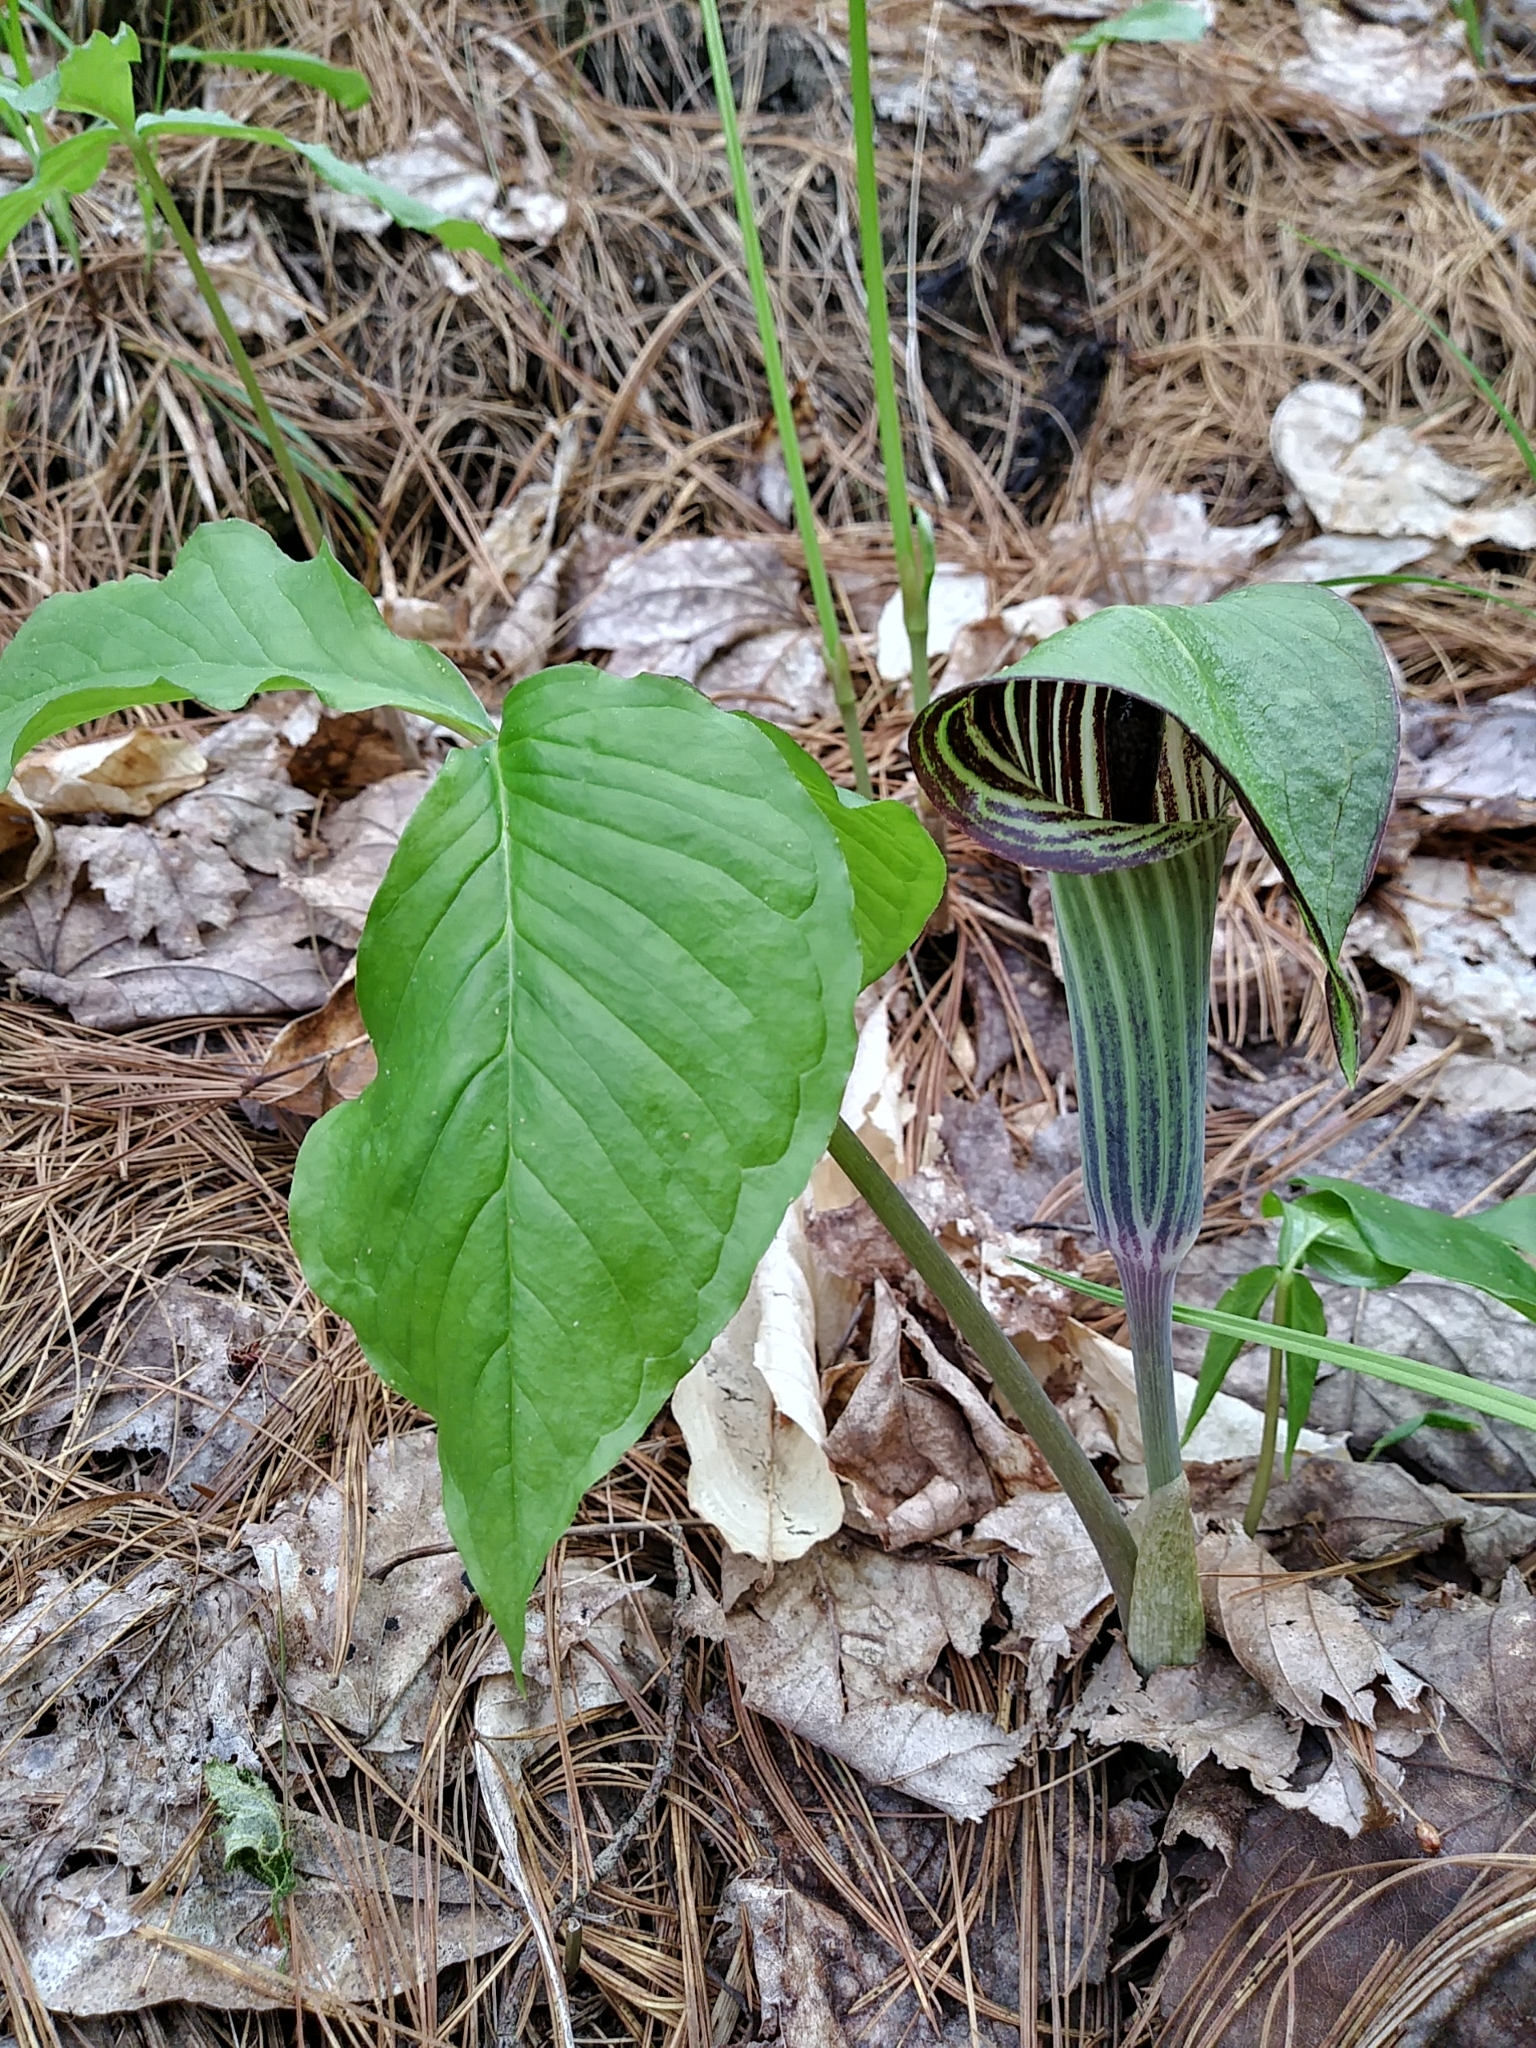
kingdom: Plantae
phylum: Tracheophyta
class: Liliopsida
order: Alismatales
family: Araceae
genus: Arisaema
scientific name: Arisaema triphyllum
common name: Jack-in-the-pulpit
